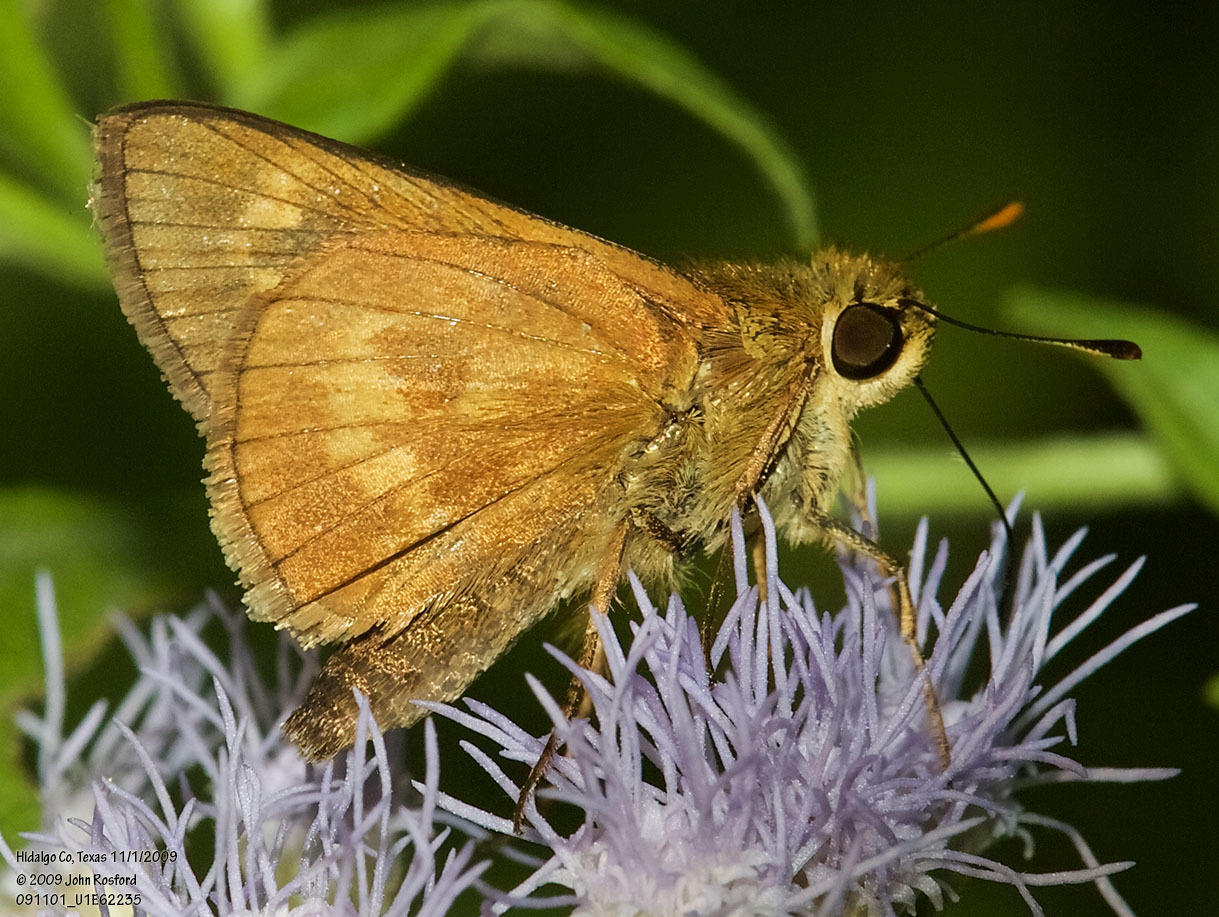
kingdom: Animalia
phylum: Arthropoda
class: Insecta
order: Lepidoptera
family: Hesperiidae
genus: Polites
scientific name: Polites otho
